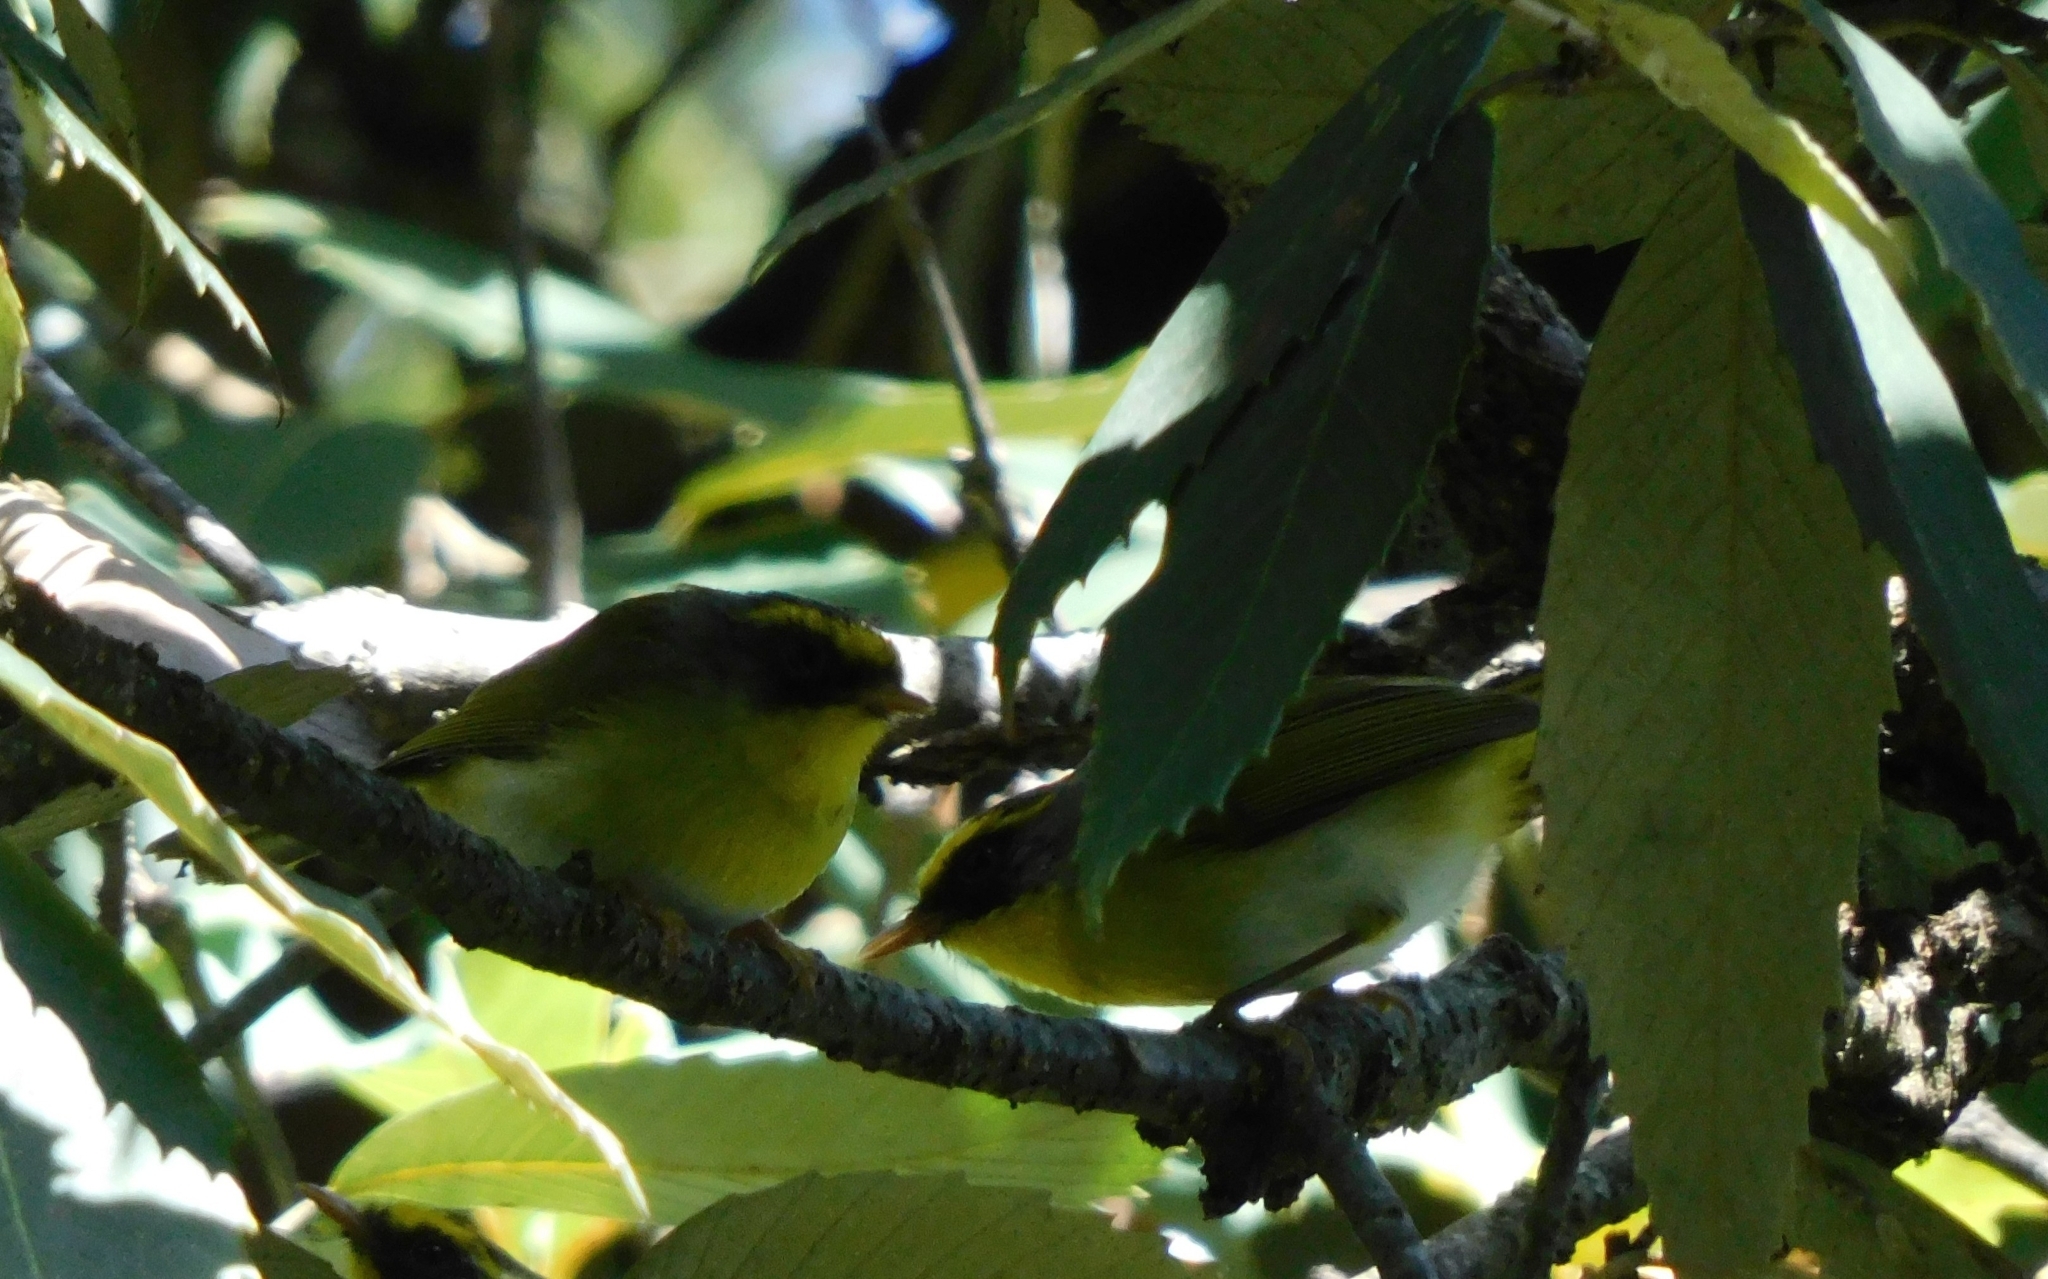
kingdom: Animalia
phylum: Chordata
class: Aves
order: Passeriformes
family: Cettiidae
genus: Abroscopus
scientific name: Abroscopus schisticeps
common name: Black-faced warbler
